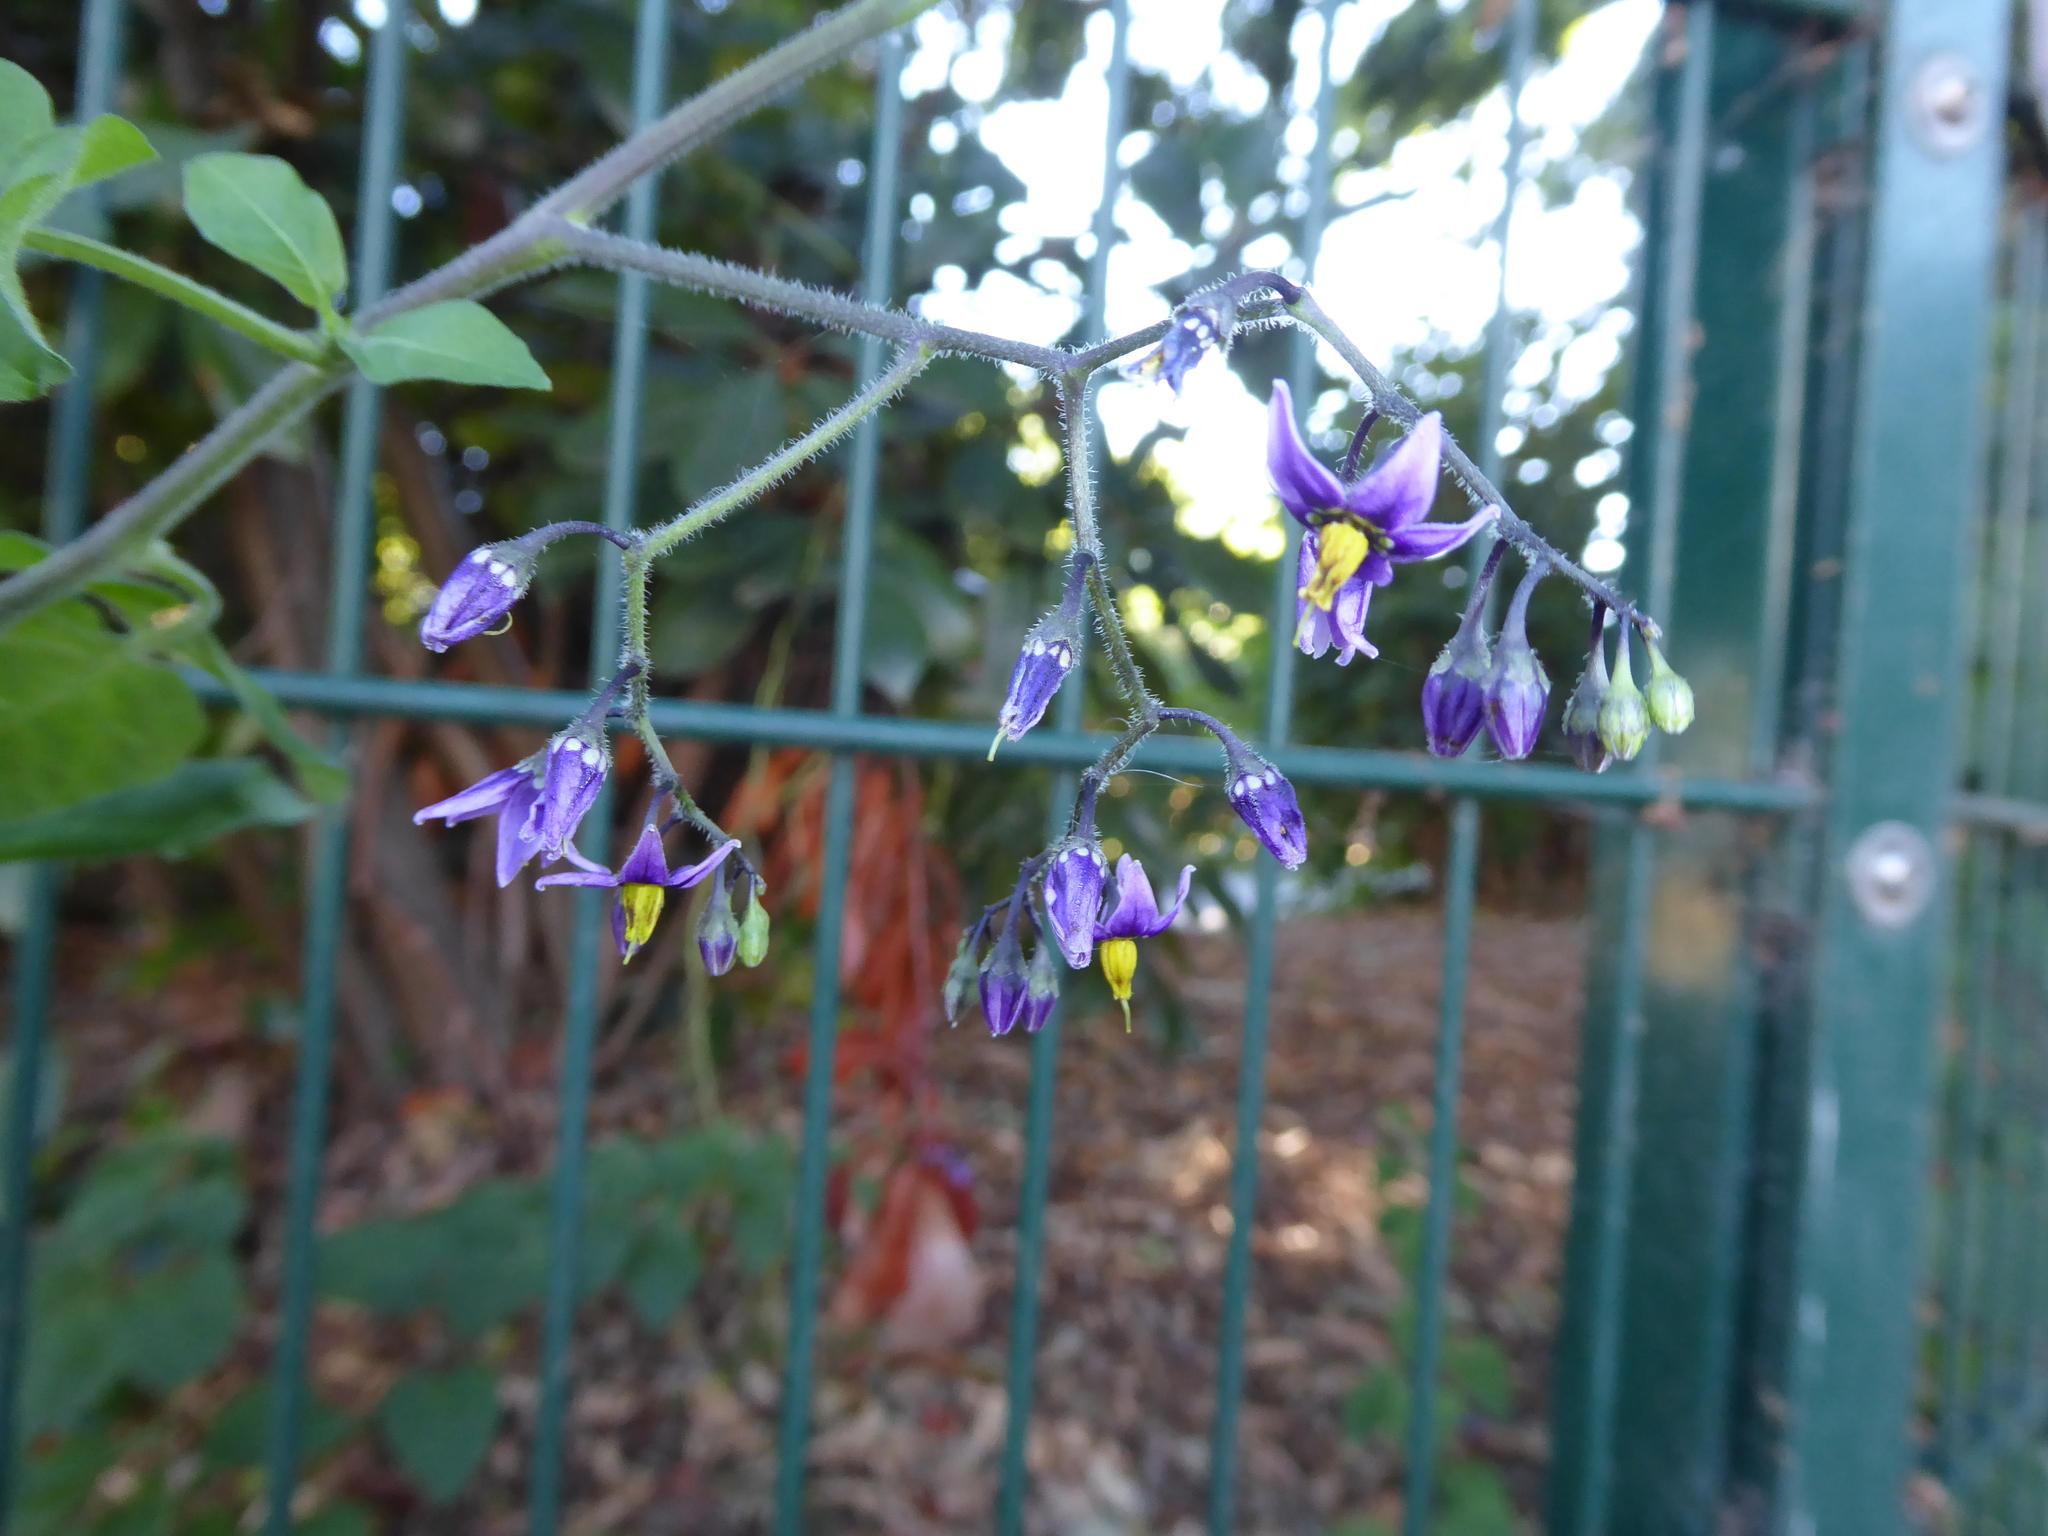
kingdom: Plantae
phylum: Tracheophyta
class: Magnoliopsida
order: Solanales
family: Solanaceae
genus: Solanum
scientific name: Solanum dulcamara
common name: Climbing nightshade
